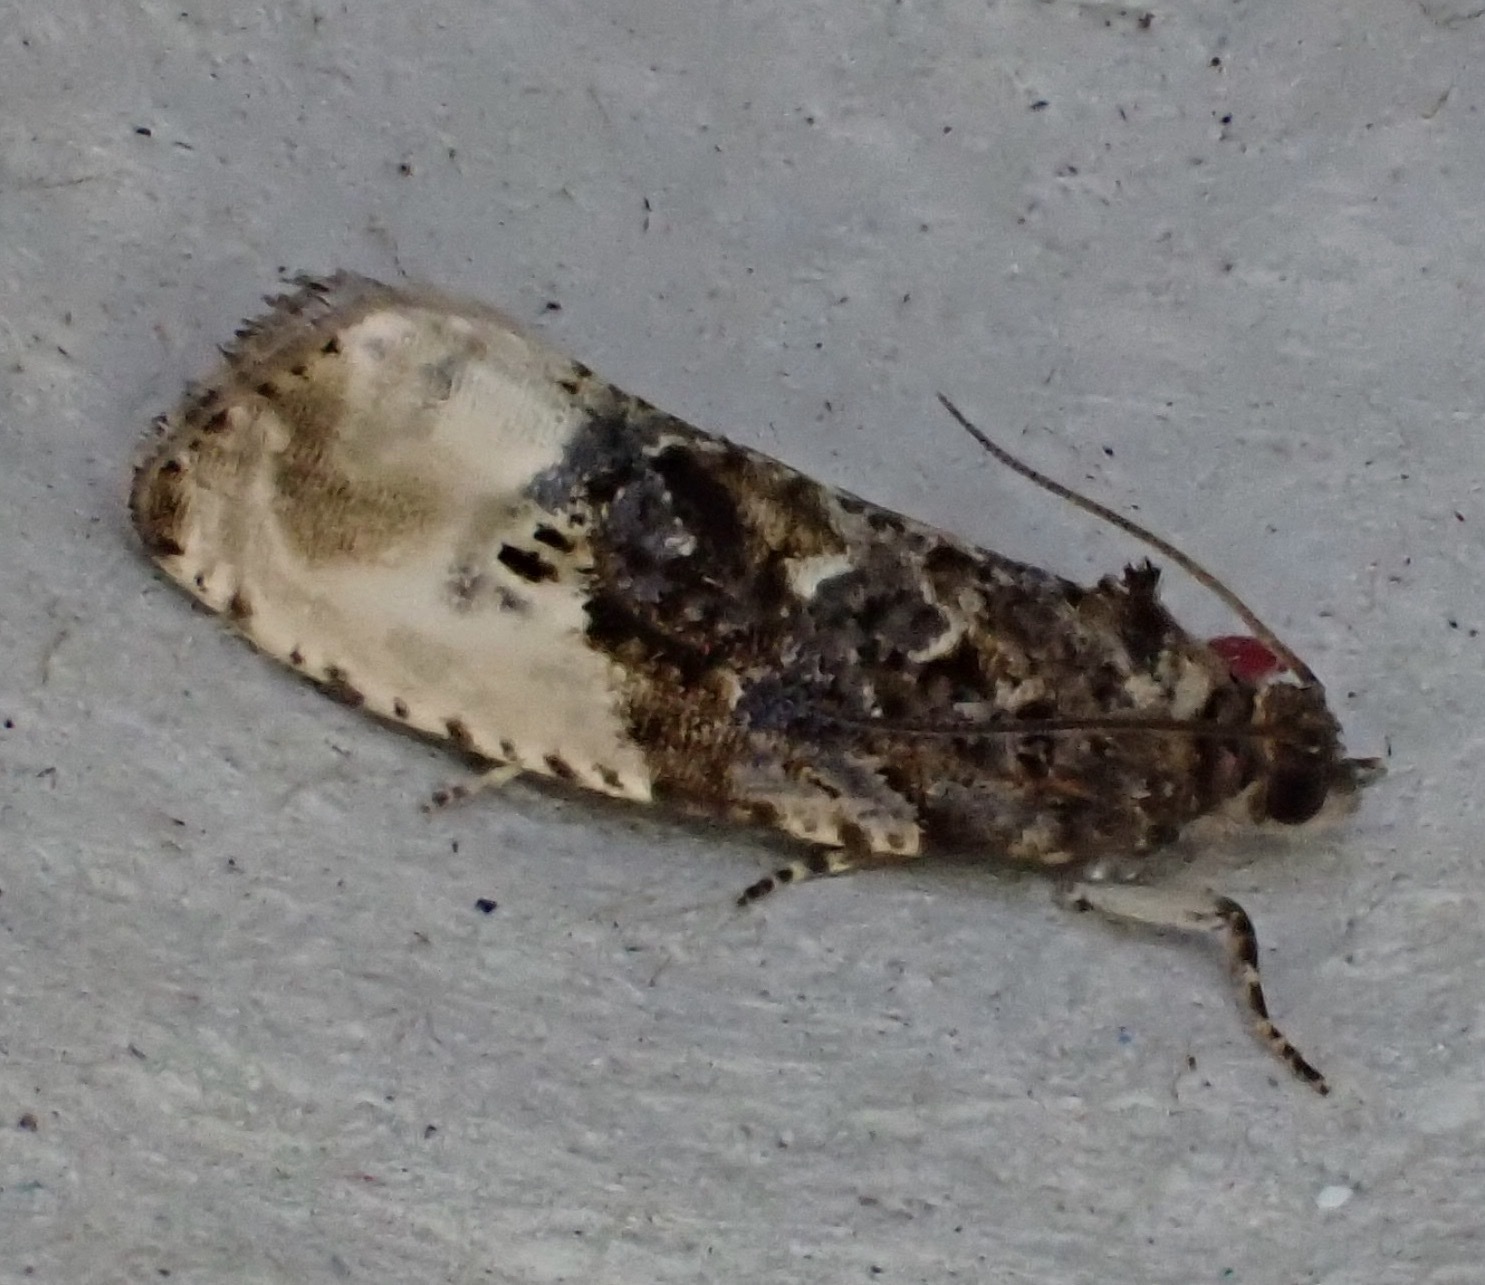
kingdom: Animalia
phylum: Arthropoda
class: Insecta
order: Lepidoptera
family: Tortricidae
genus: Hedya
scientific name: Hedya nubiferana
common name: Marbled orchard tortrix
